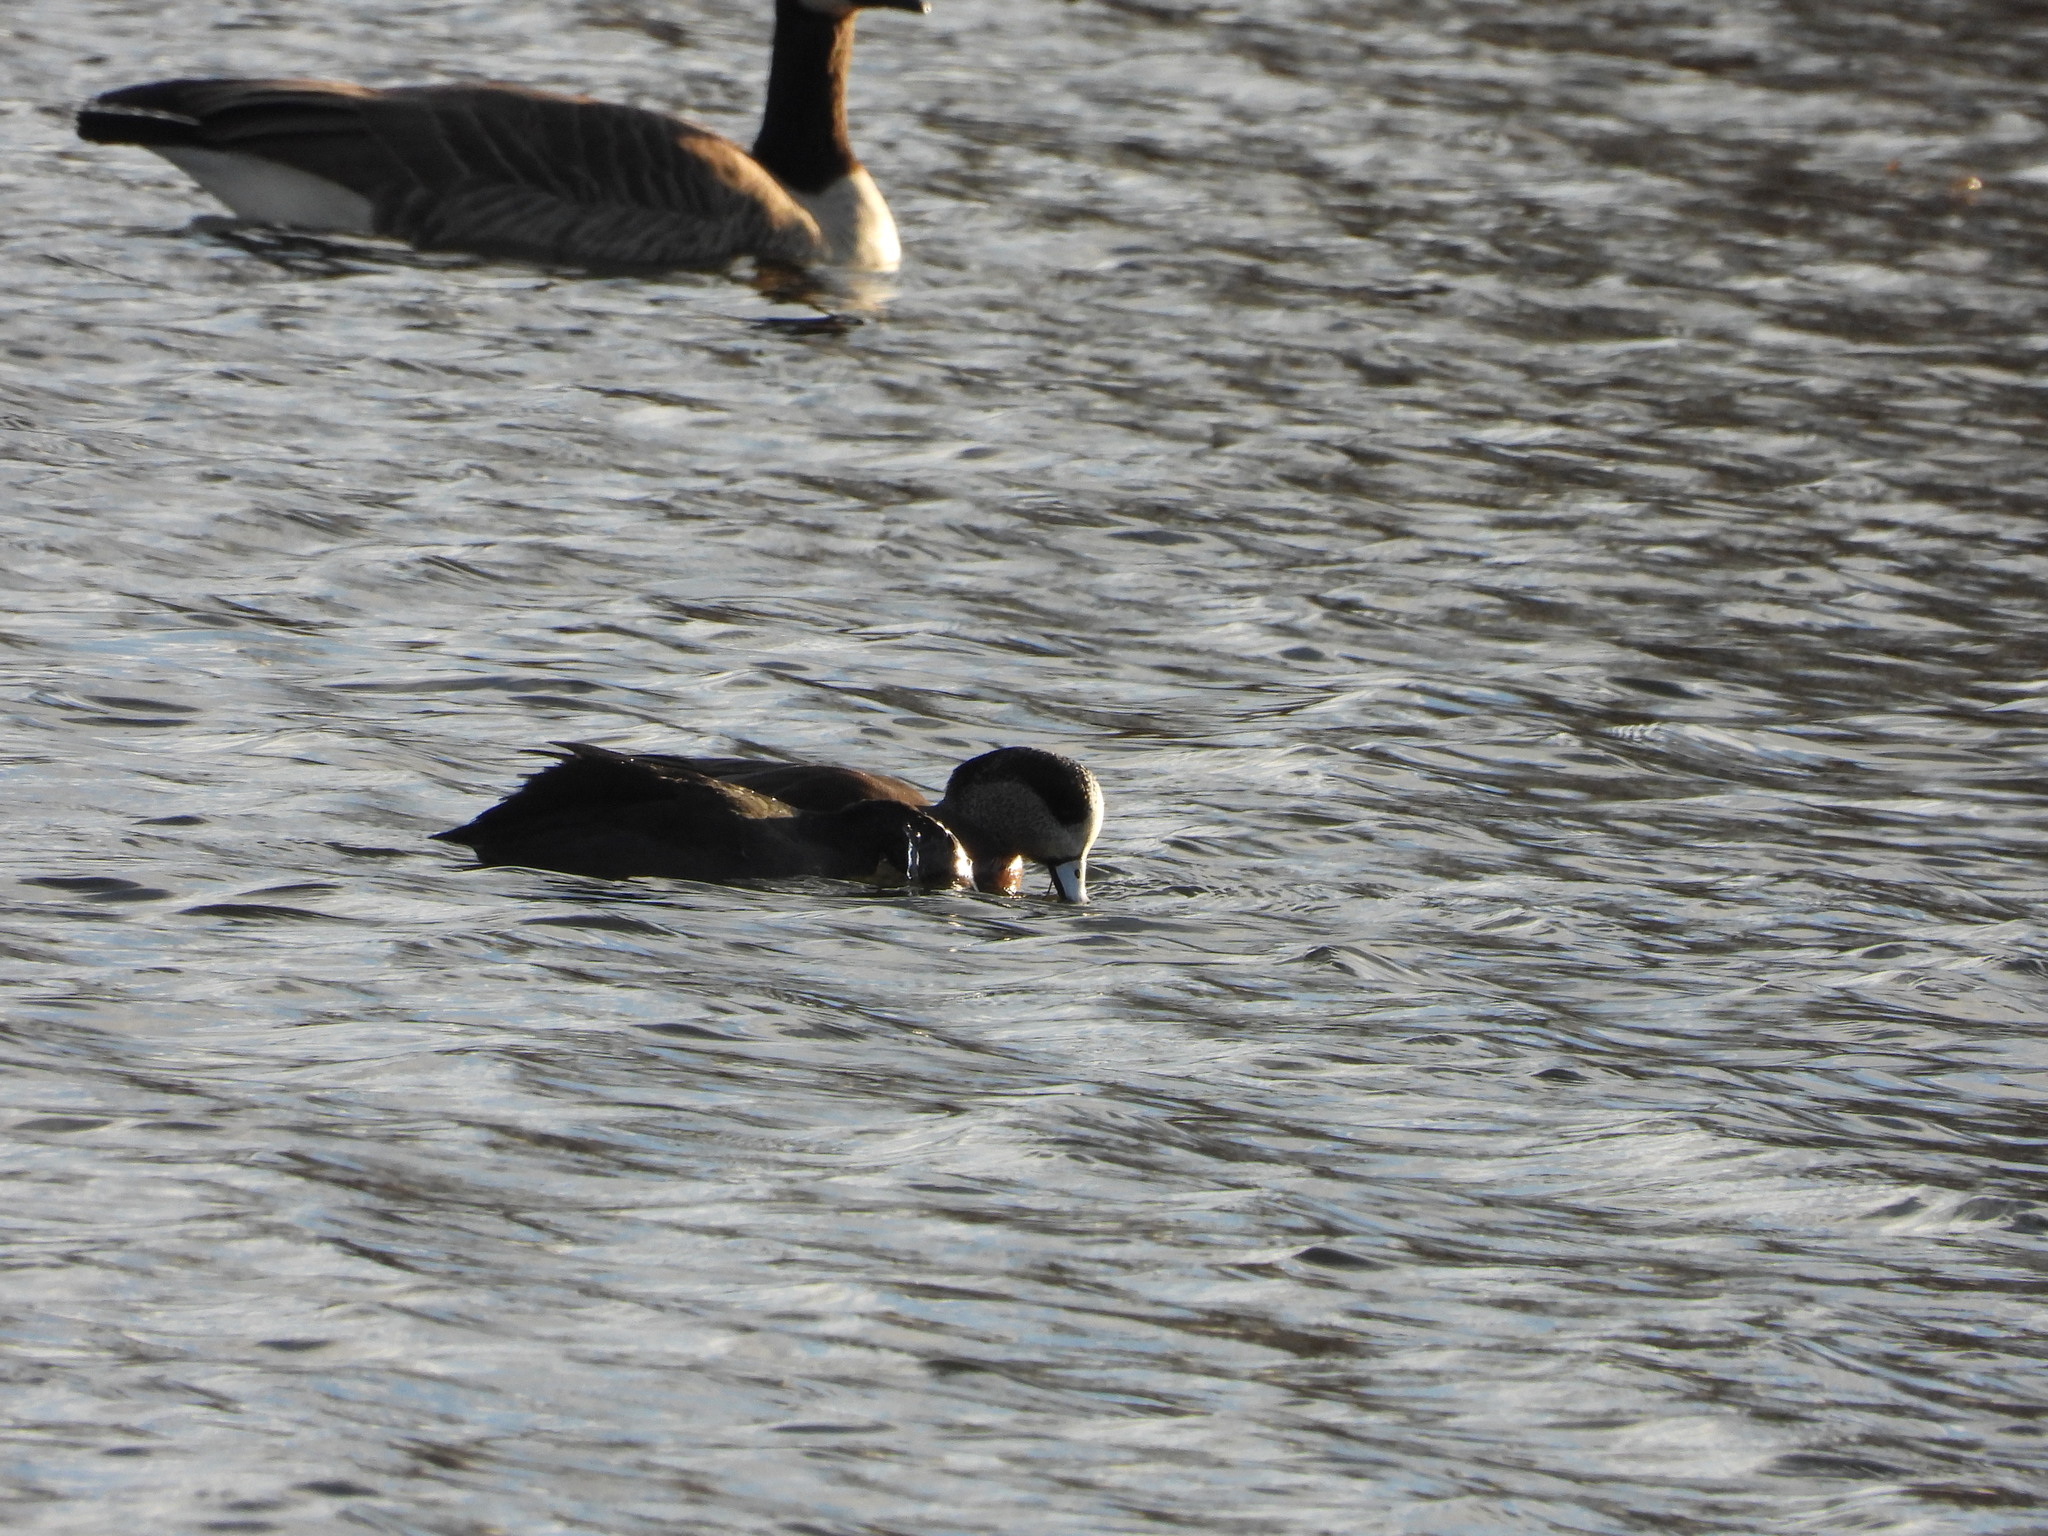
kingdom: Animalia
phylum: Chordata
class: Aves
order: Anseriformes
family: Anatidae
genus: Mareca
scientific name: Mareca americana
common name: American wigeon
